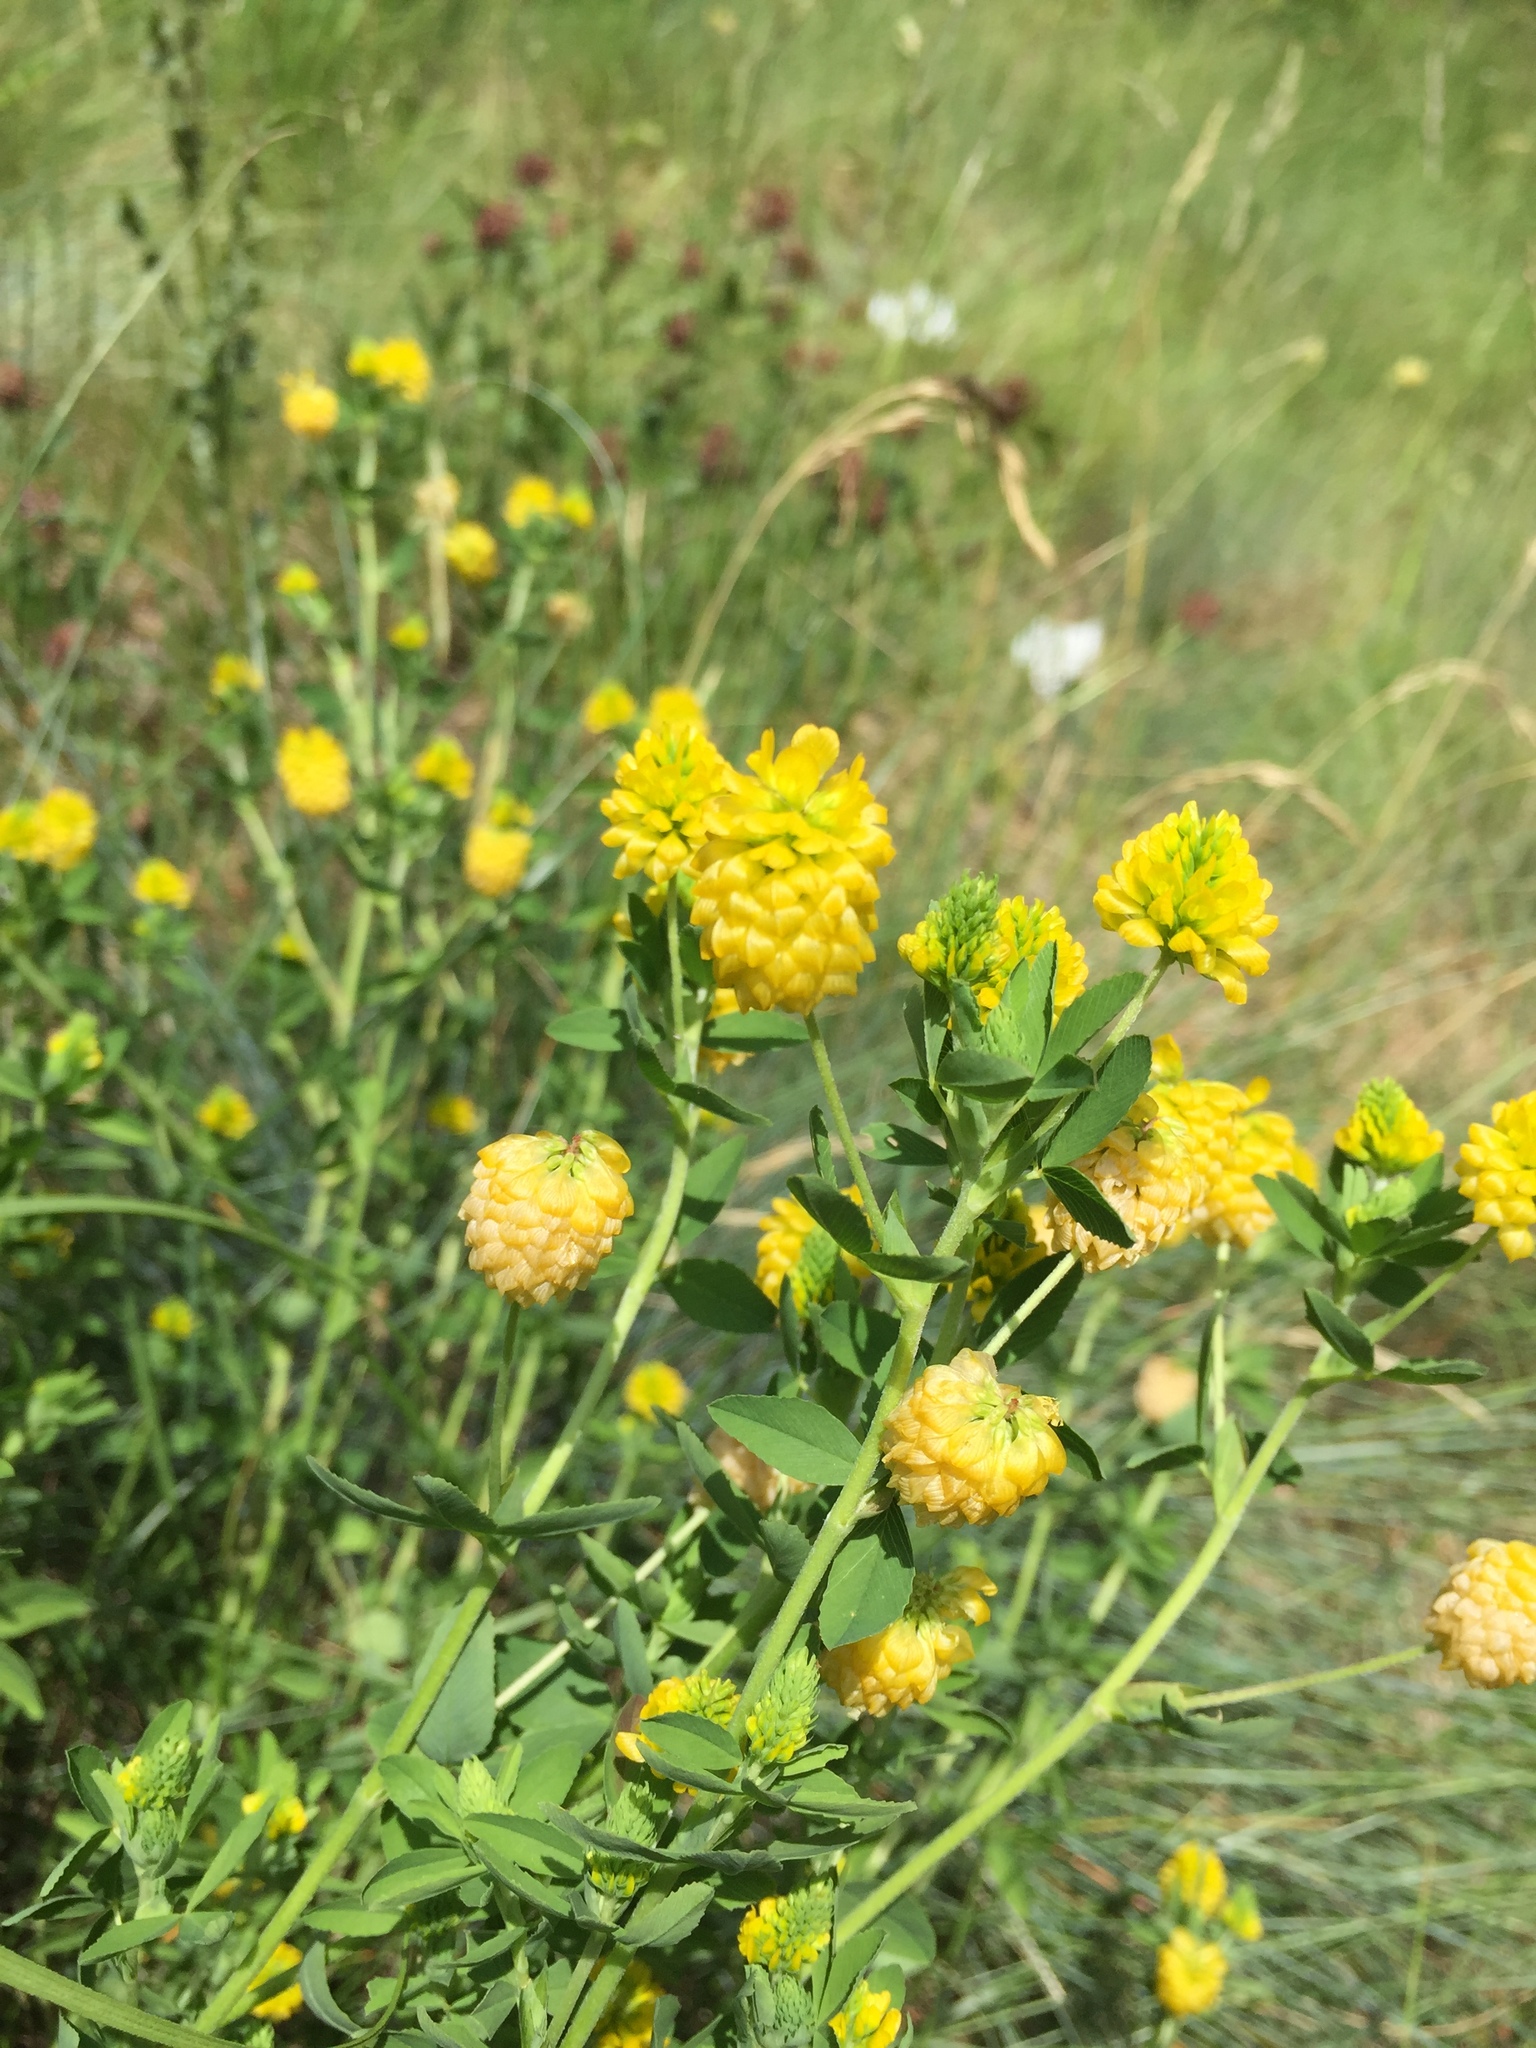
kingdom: Plantae
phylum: Tracheophyta
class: Magnoliopsida
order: Fabales
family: Fabaceae
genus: Trifolium
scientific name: Trifolium aureum
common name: Golden clover
